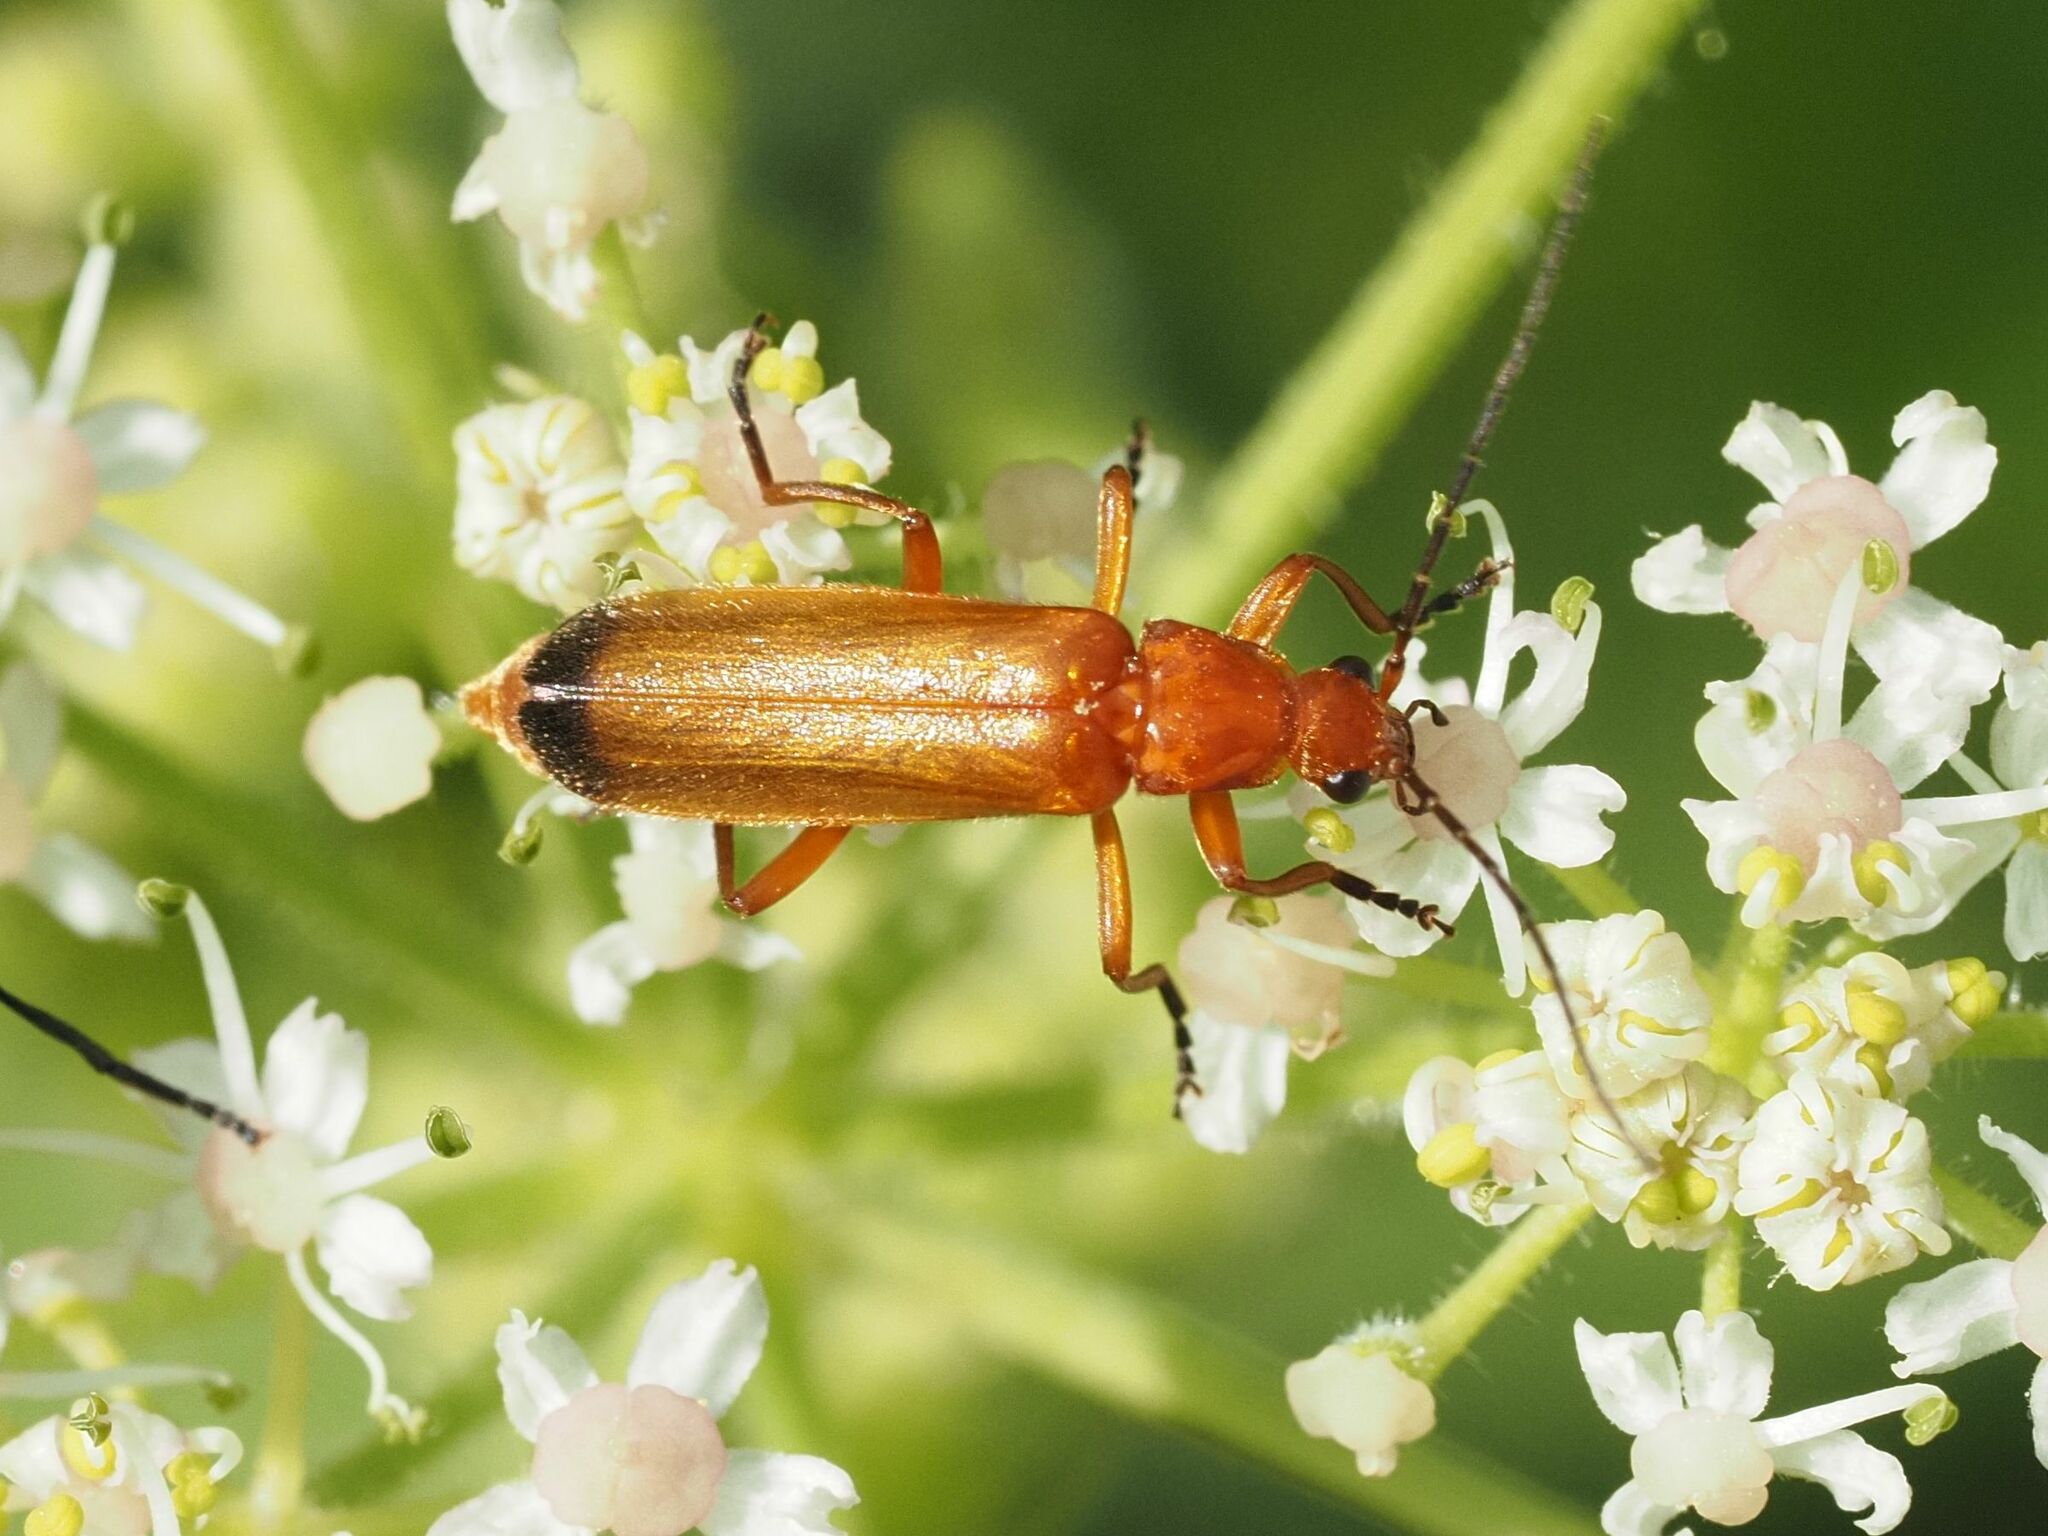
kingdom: Animalia
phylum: Arthropoda
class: Insecta
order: Coleoptera
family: Cantharidae
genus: Rhagonycha
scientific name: Rhagonycha fulva
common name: Common red soldier beetle
